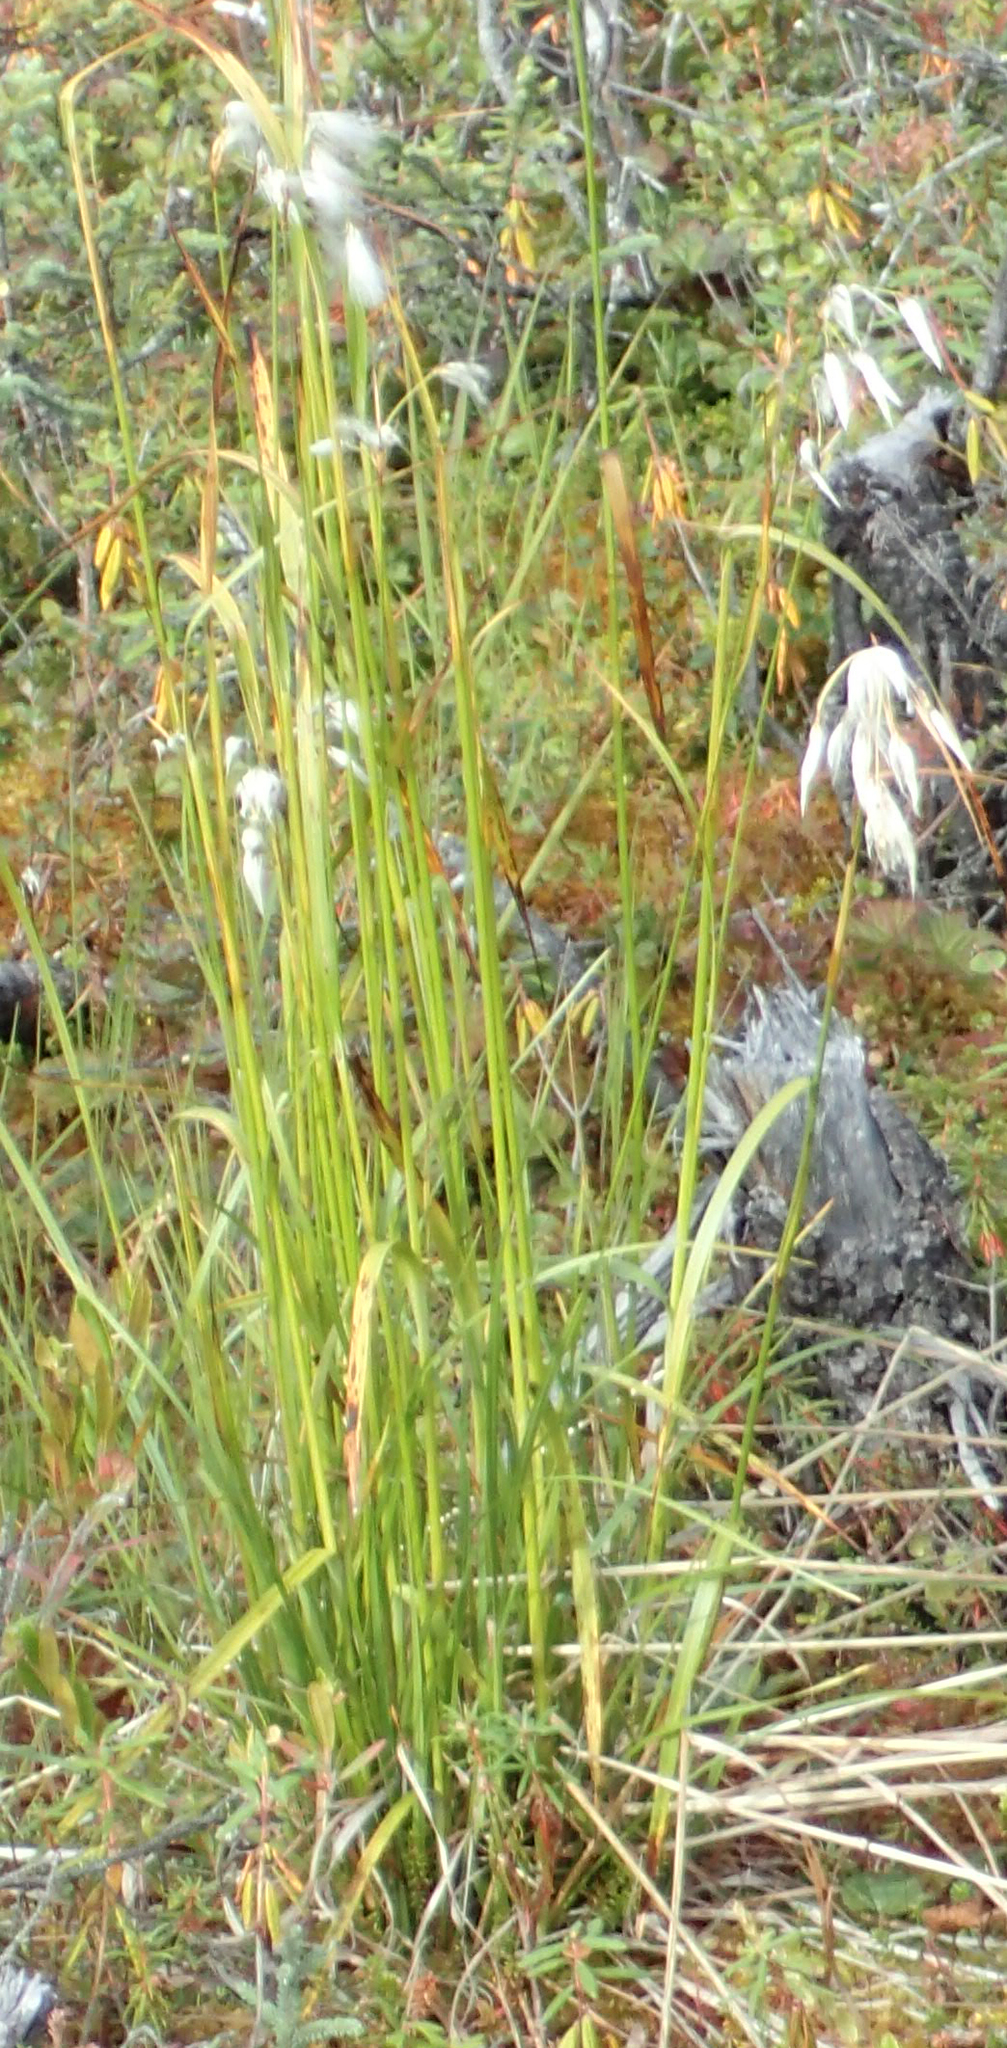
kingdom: Plantae
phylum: Tracheophyta
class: Liliopsida
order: Poales
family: Cyperaceae
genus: Eriophorum
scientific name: Eriophorum angustifolium
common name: Common cottongrass
